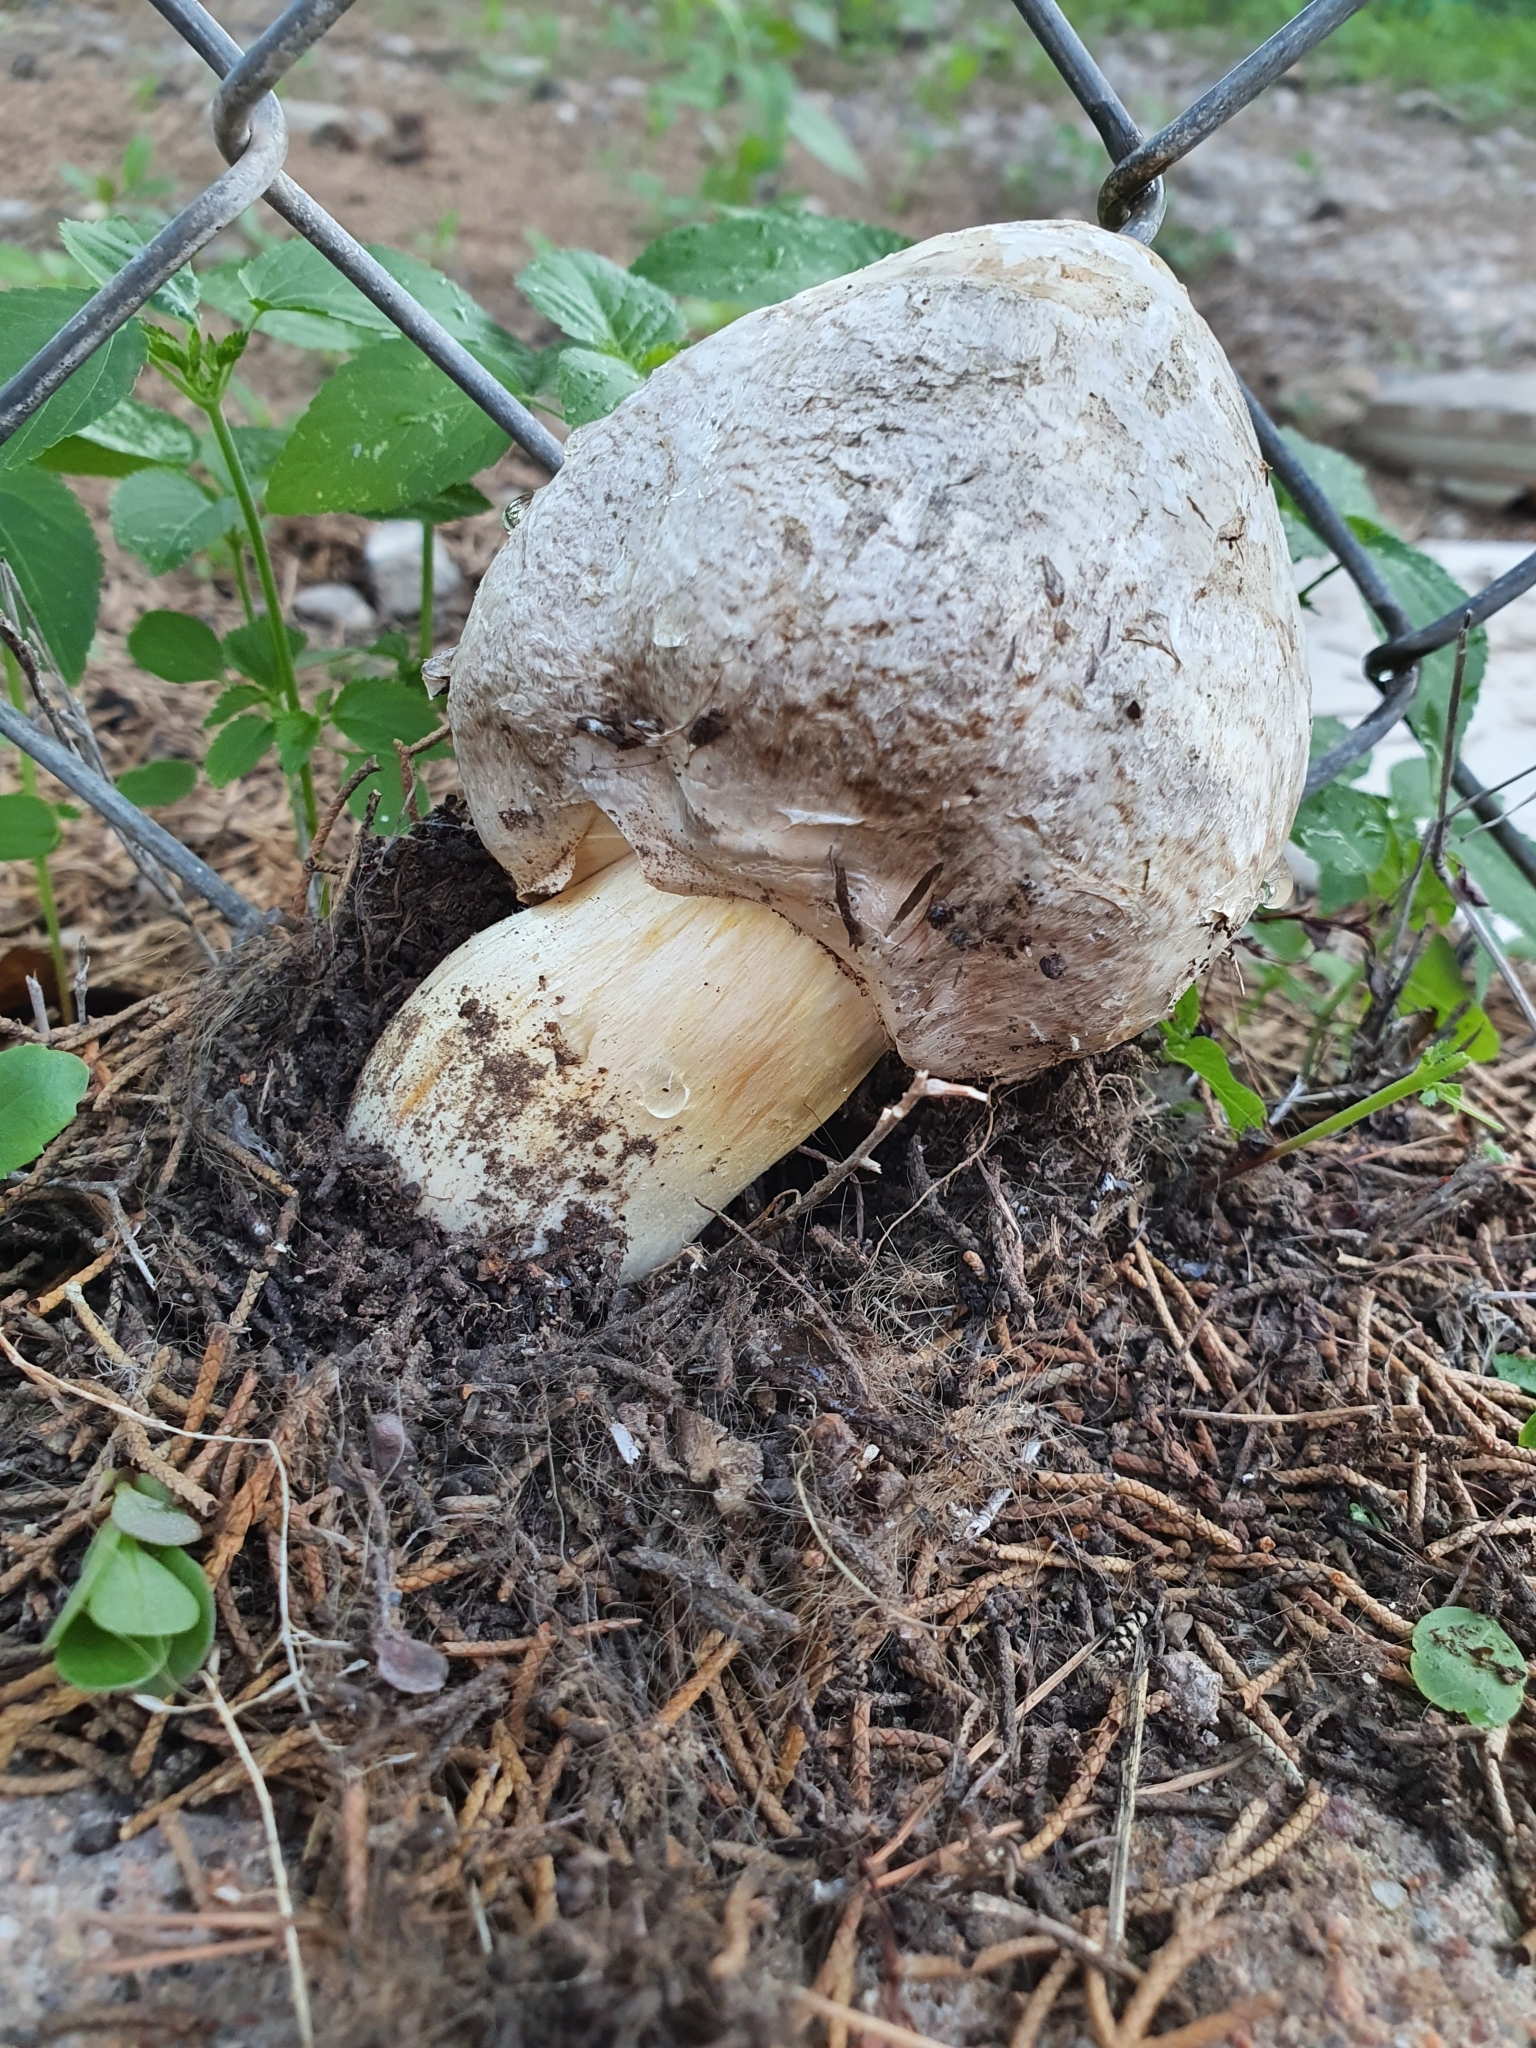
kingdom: Fungi
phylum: Basidiomycota
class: Agaricomycetes
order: Agaricales
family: Agaricaceae
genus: Chlorophyllum
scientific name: Chlorophyllum agaricoides
